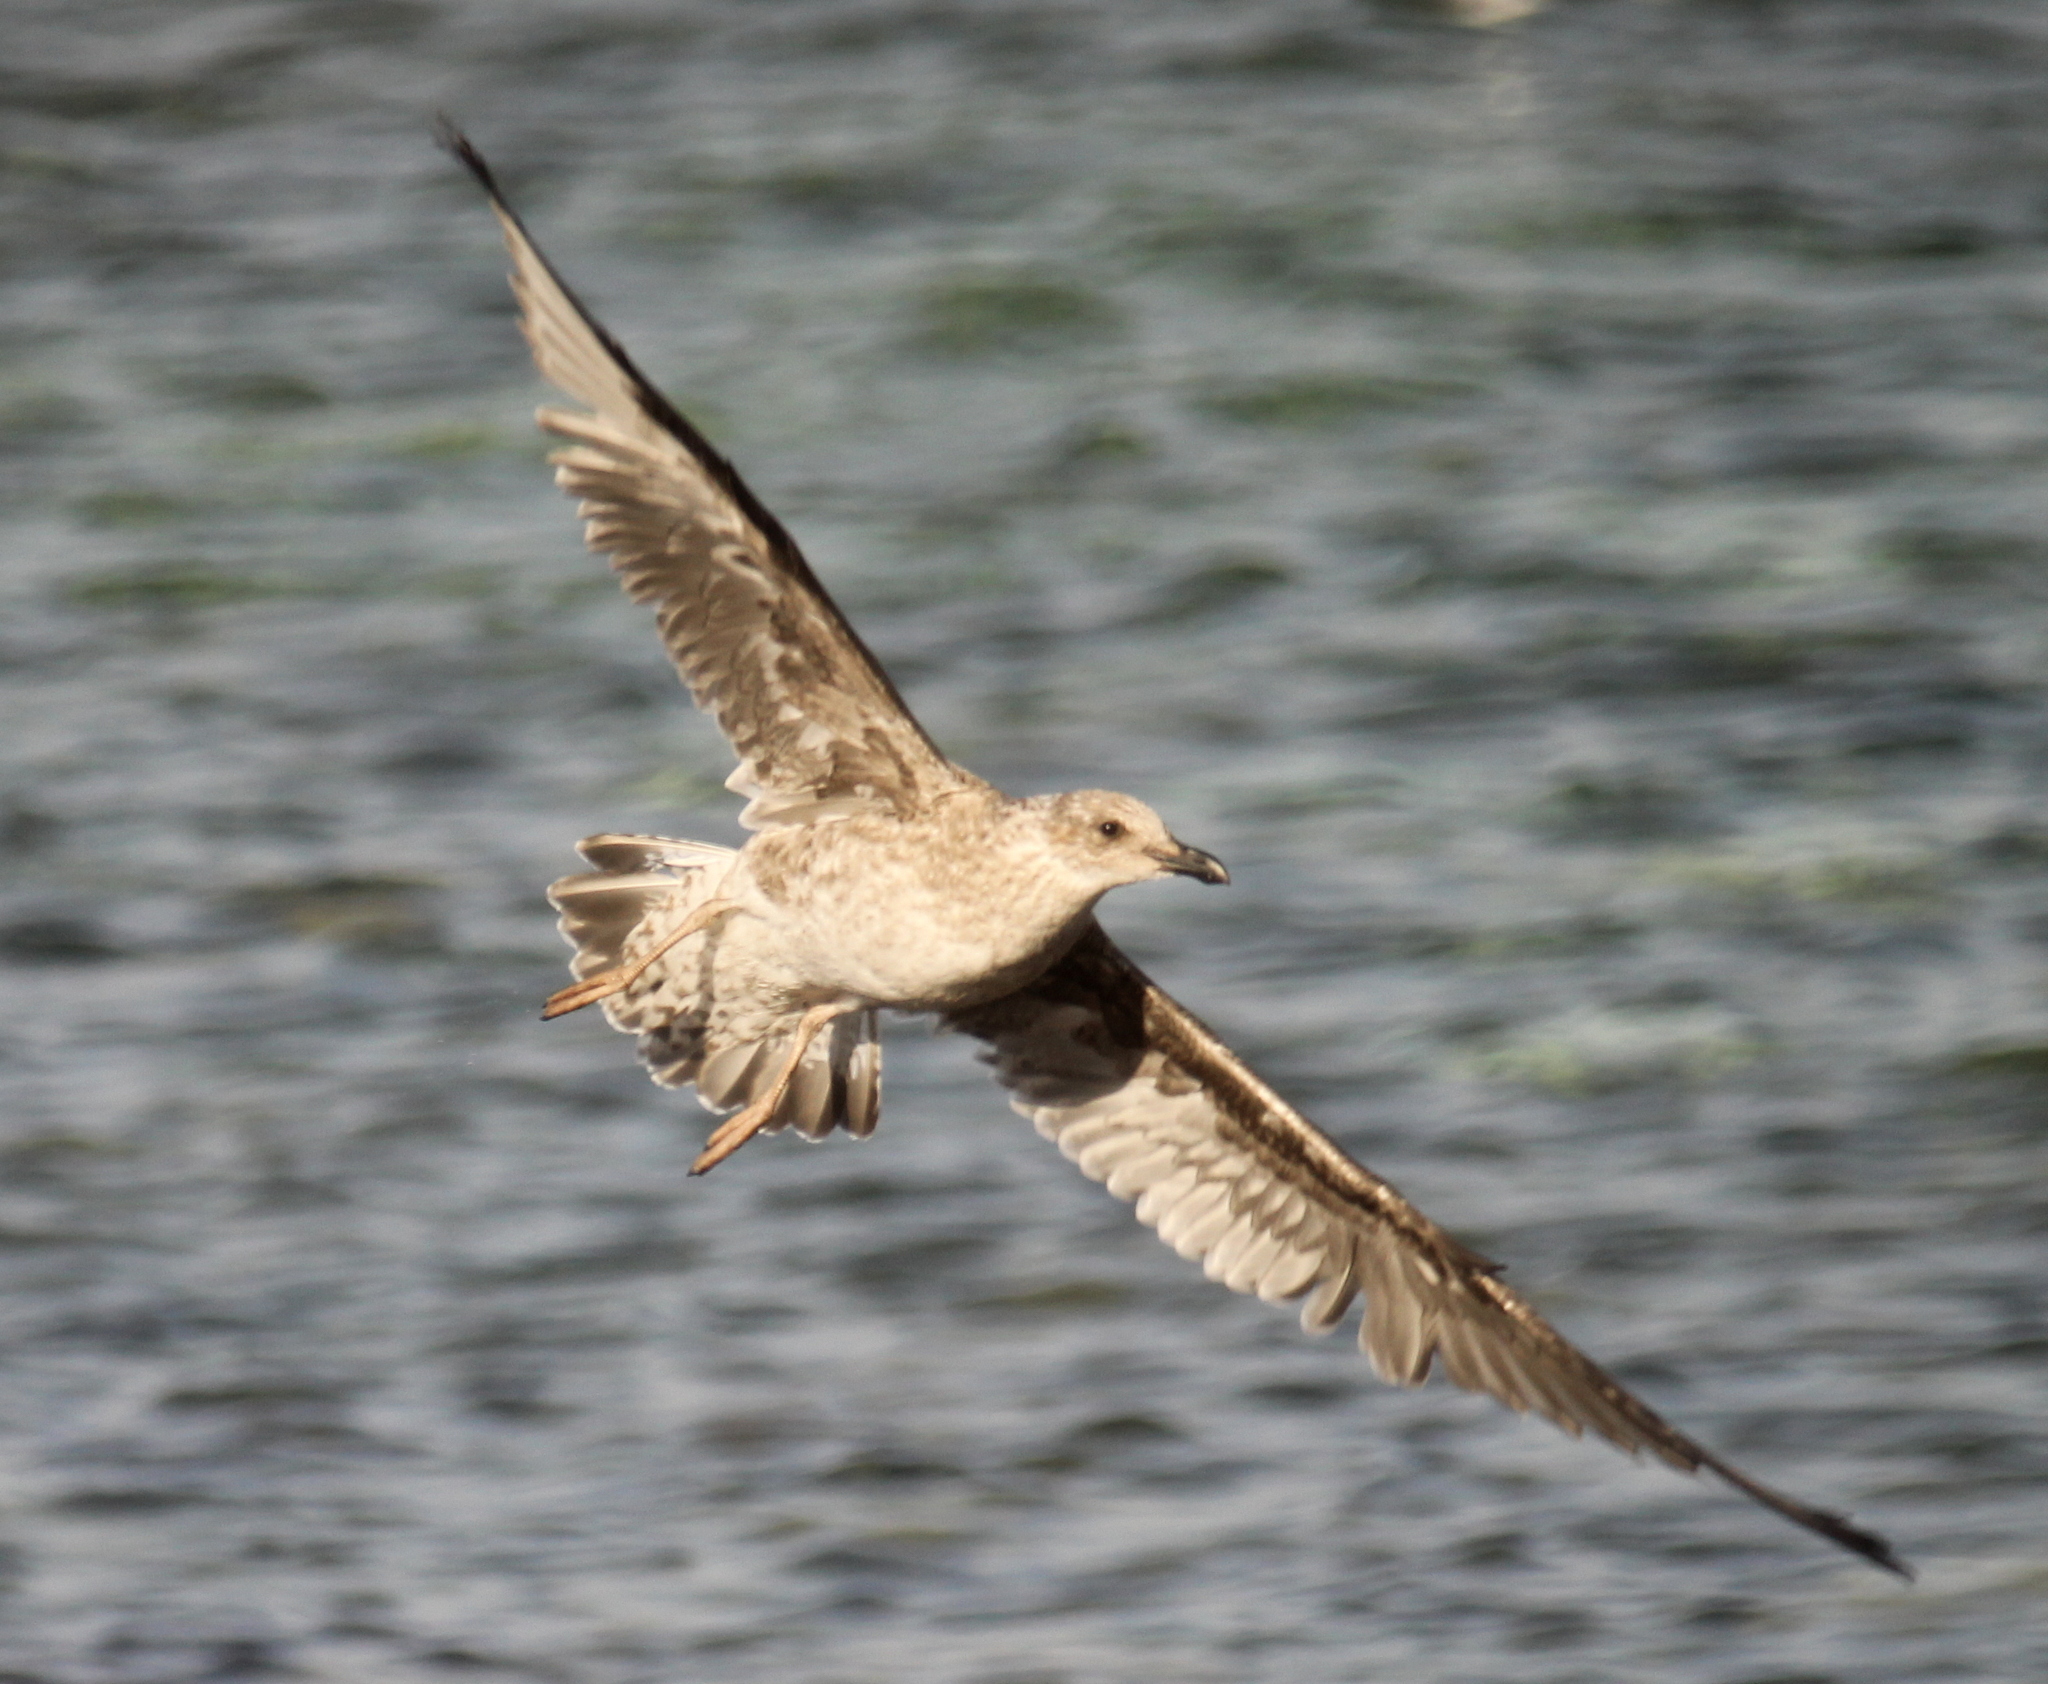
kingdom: Animalia
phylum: Chordata
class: Aves
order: Charadriiformes
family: Laridae
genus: Larus
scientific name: Larus dominicanus
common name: Kelp gull
